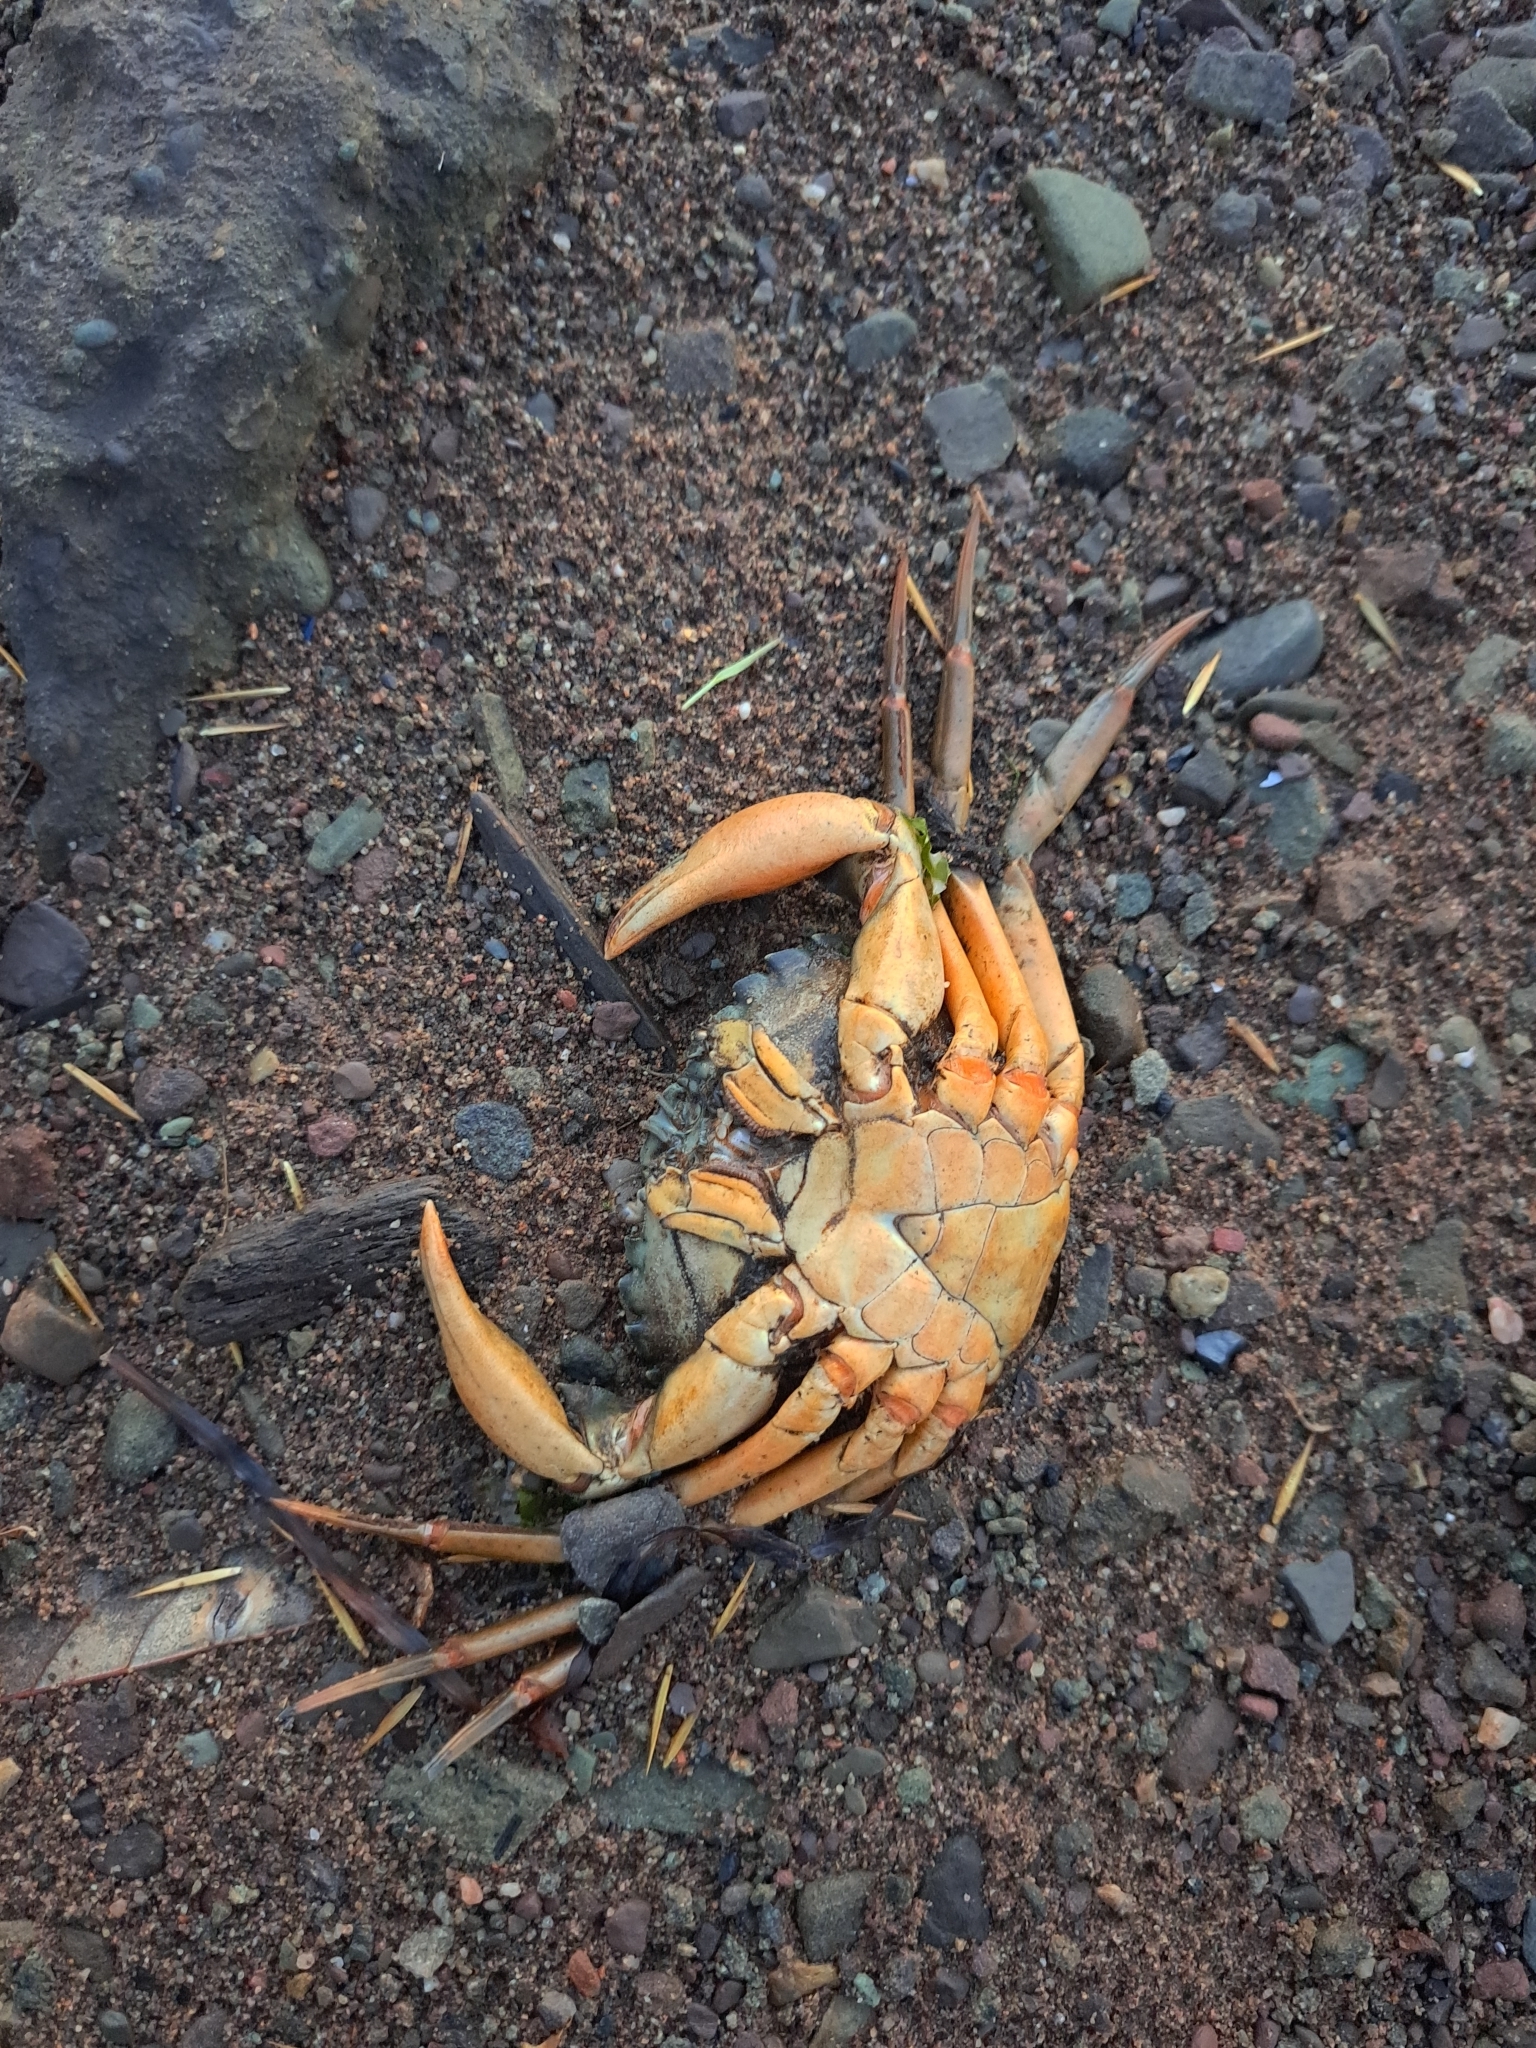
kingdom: Animalia
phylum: Arthropoda
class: Malacostraca
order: Decapoda
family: Carcinidae
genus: Carcinus
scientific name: Carcinus maenas
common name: European green crab
